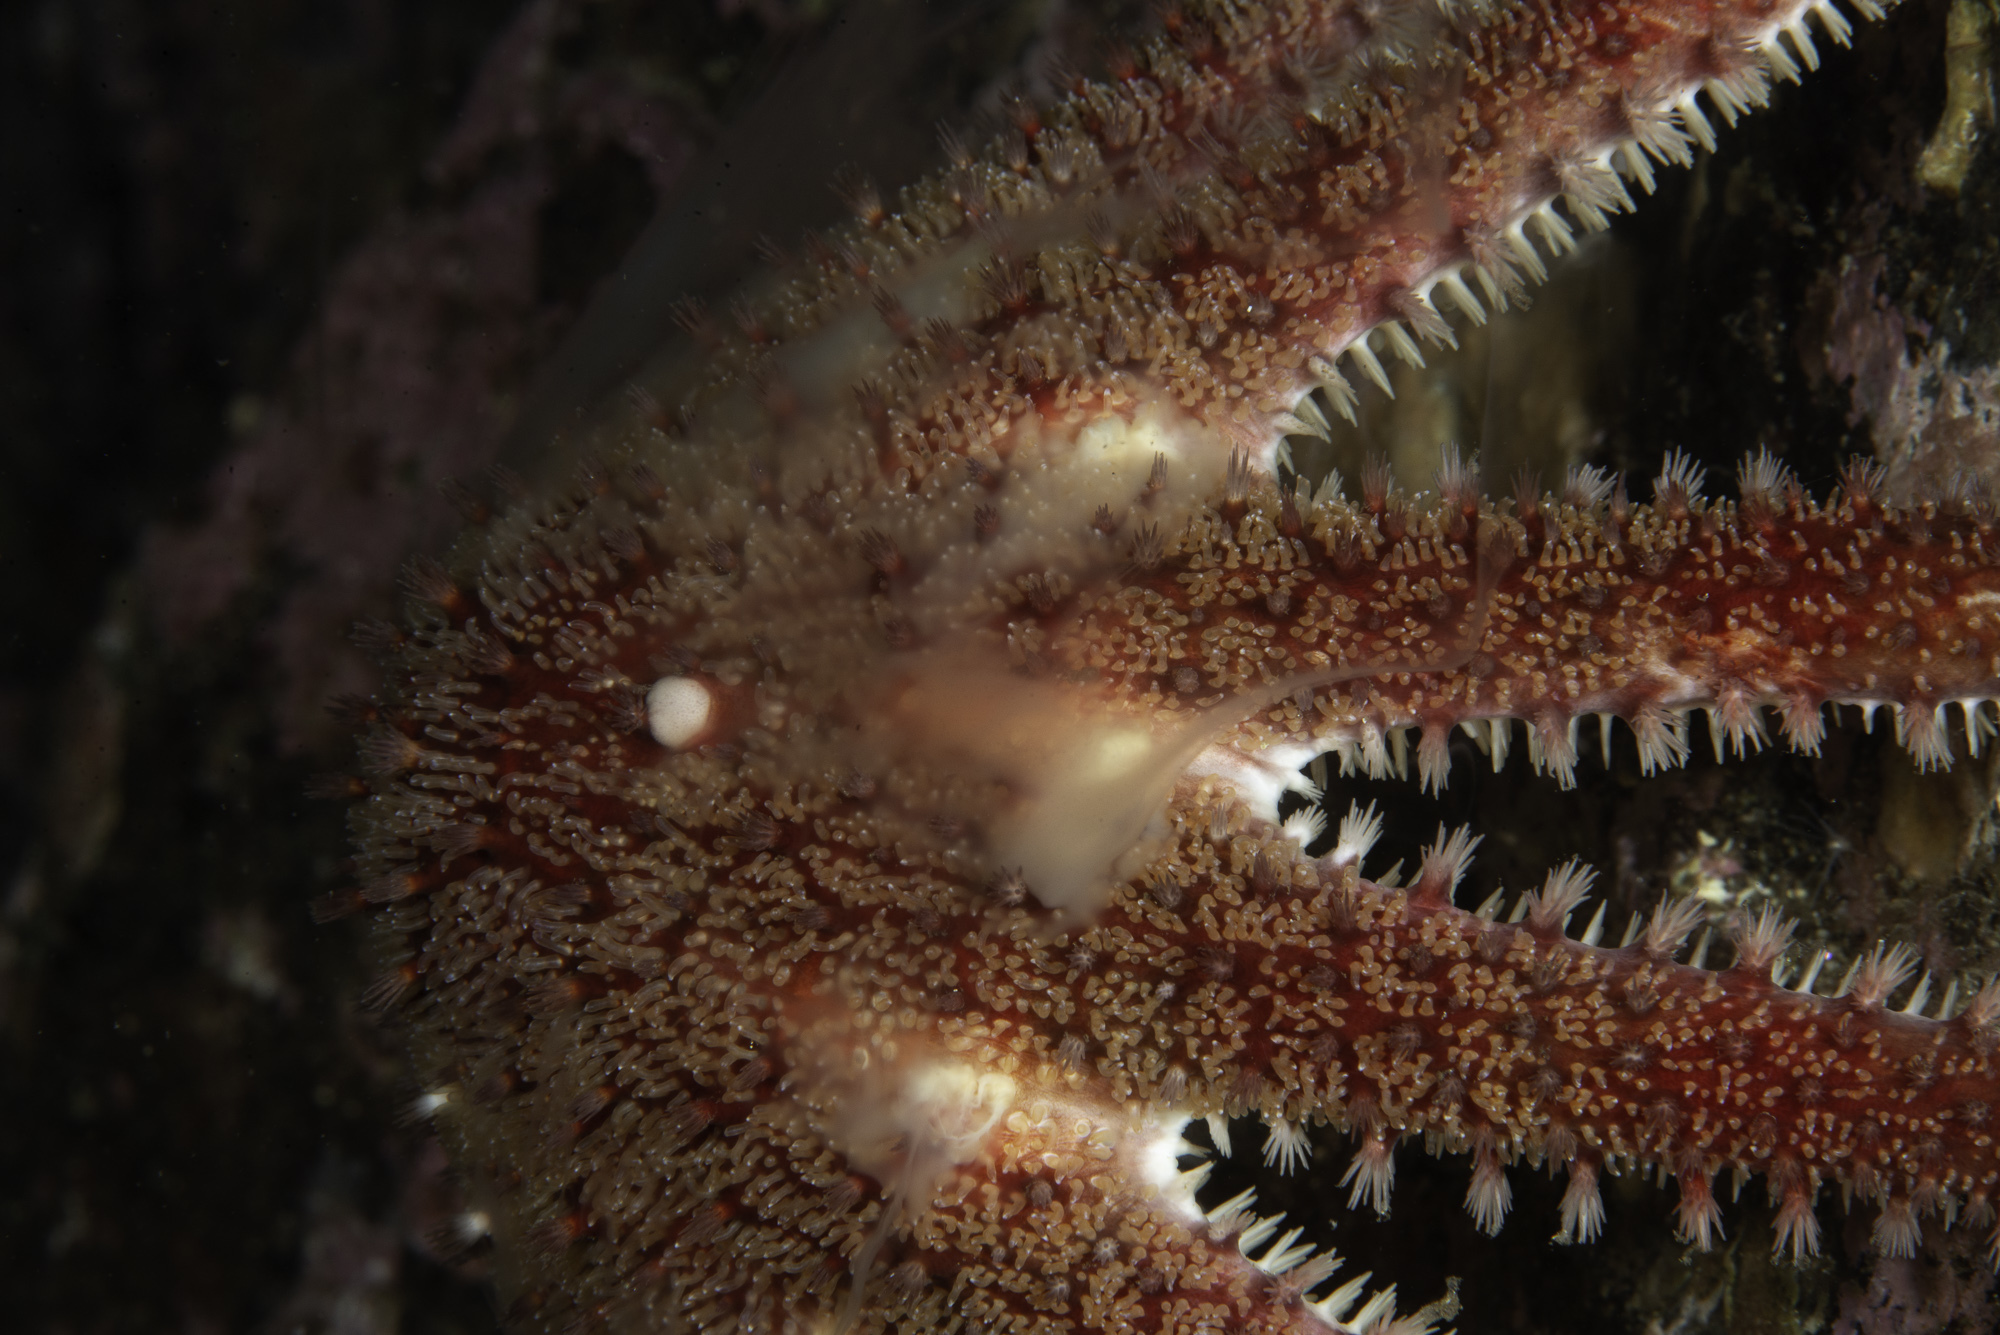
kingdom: Animalia
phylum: Echinodermata
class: Asteroidea
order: Valvatida
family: Solasteridae
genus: Crossaster
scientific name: Crossaster papposus
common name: Common sun star
